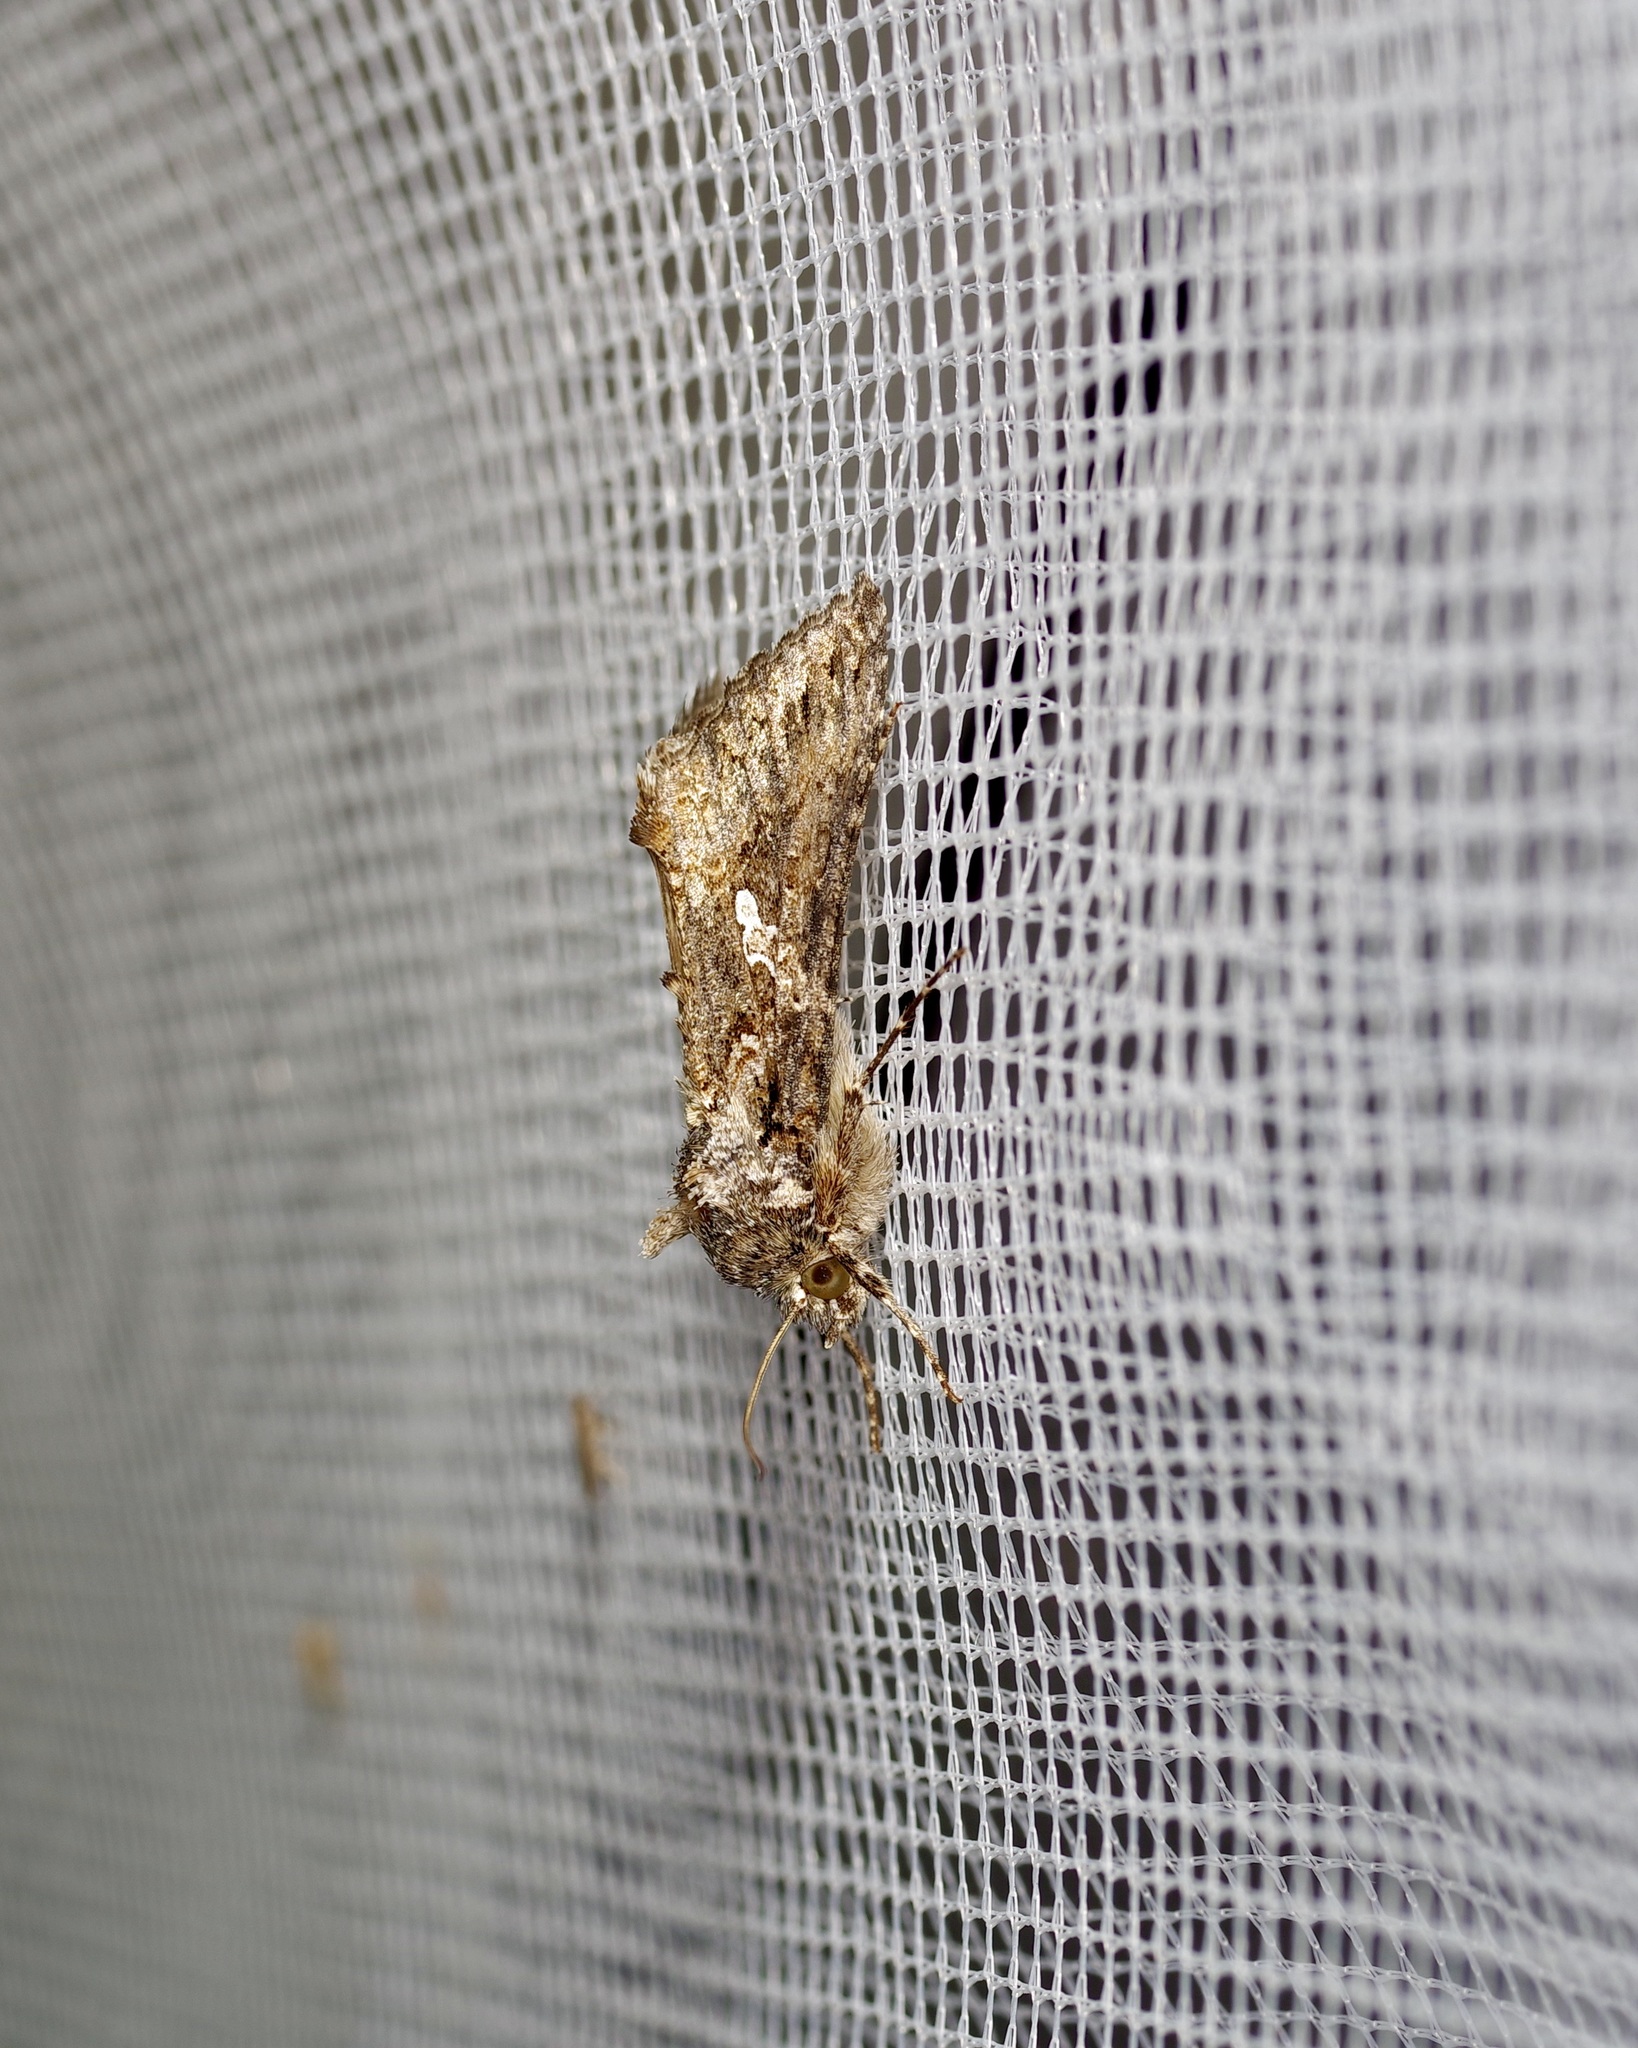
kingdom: Animalia
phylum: Arthropoda
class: Insecta
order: Lepidoptera
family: Noctuidae
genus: Trichoplusia
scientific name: Trichoplusia ni
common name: Ni moth
